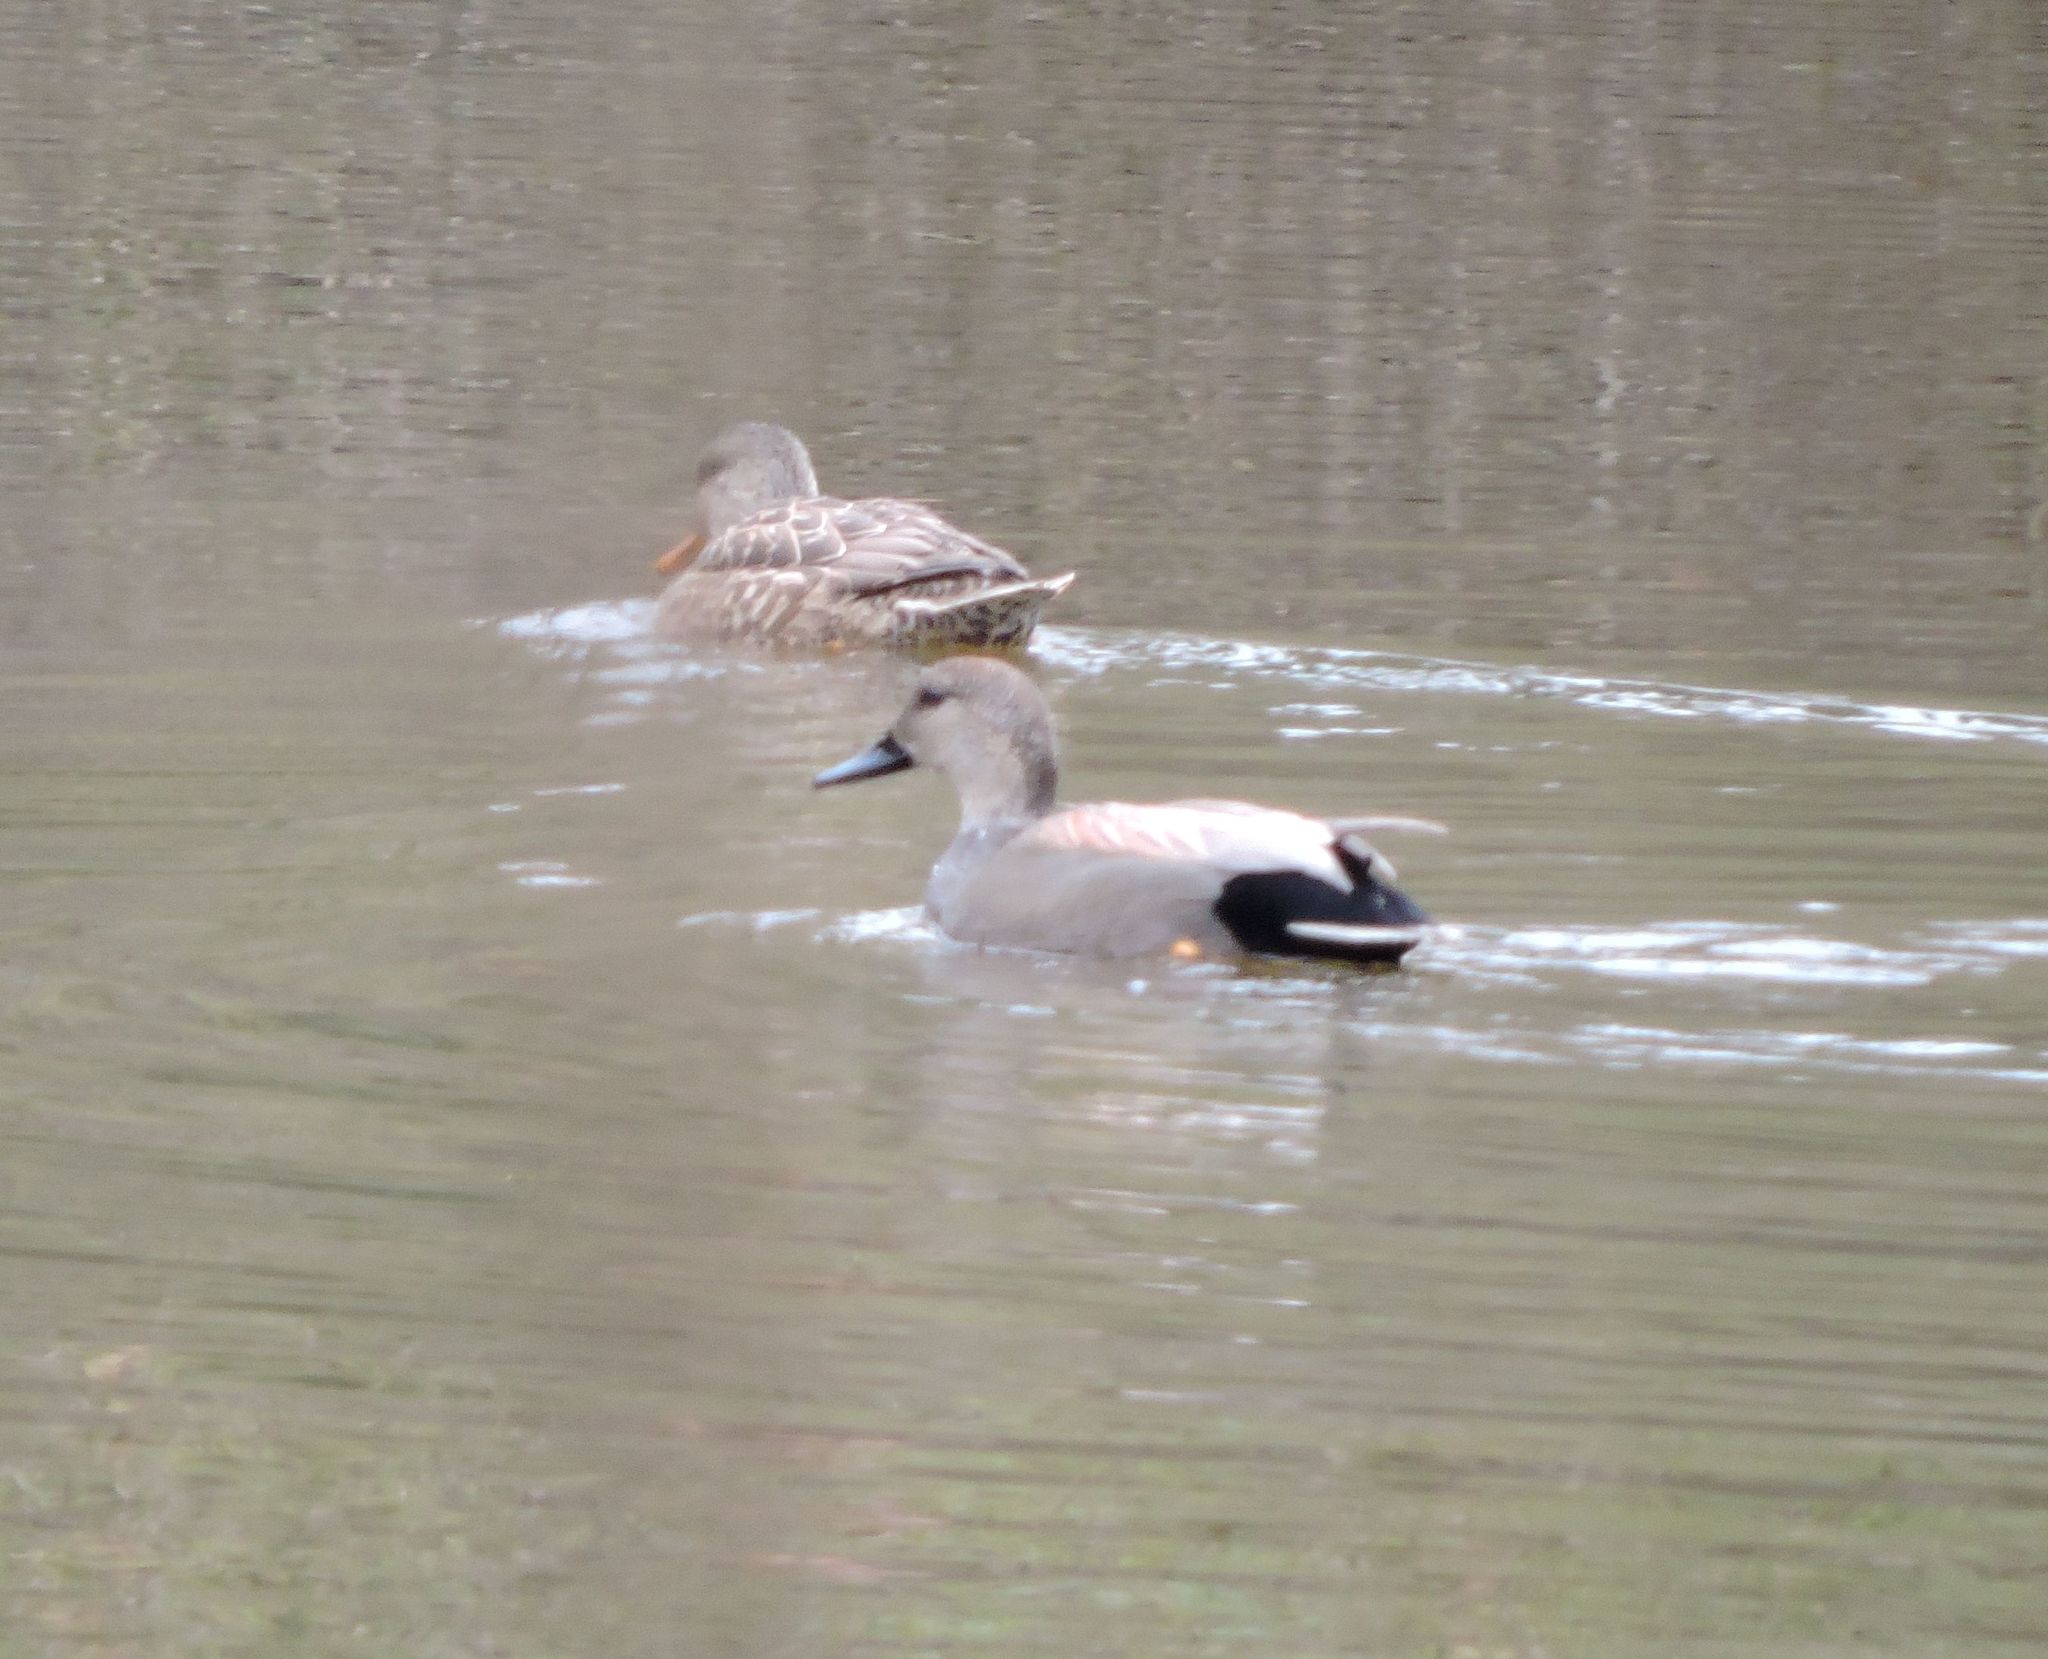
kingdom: Animalia
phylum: Chordata
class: Aves
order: Anseriformes
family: Anatidae
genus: Mareca
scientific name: Mareca strepera
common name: Gadwall
